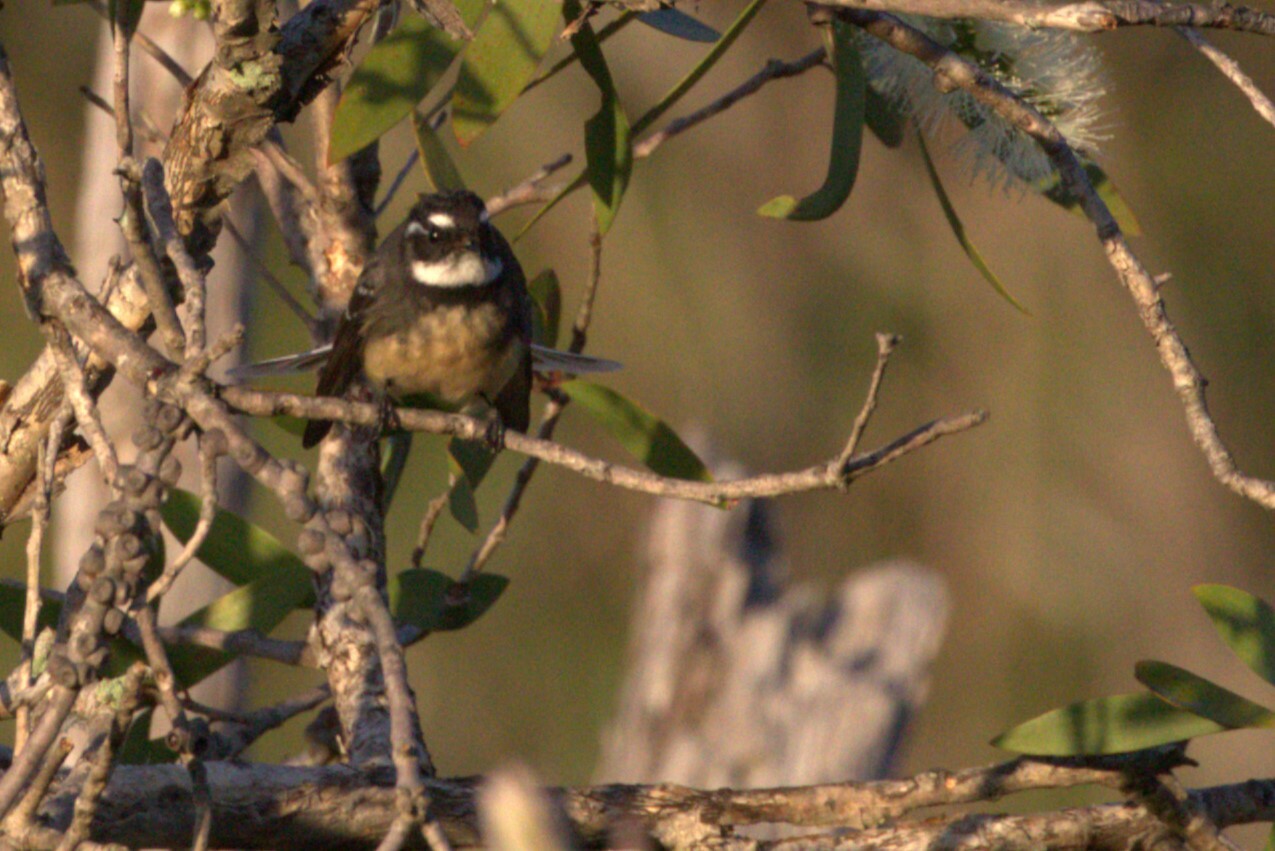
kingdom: Animalia
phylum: Chordata
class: Aves
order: Passeriformes
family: Rhipiduridae
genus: Rhipidura
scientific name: Rhipidura albiscapa
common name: Grey fantail
